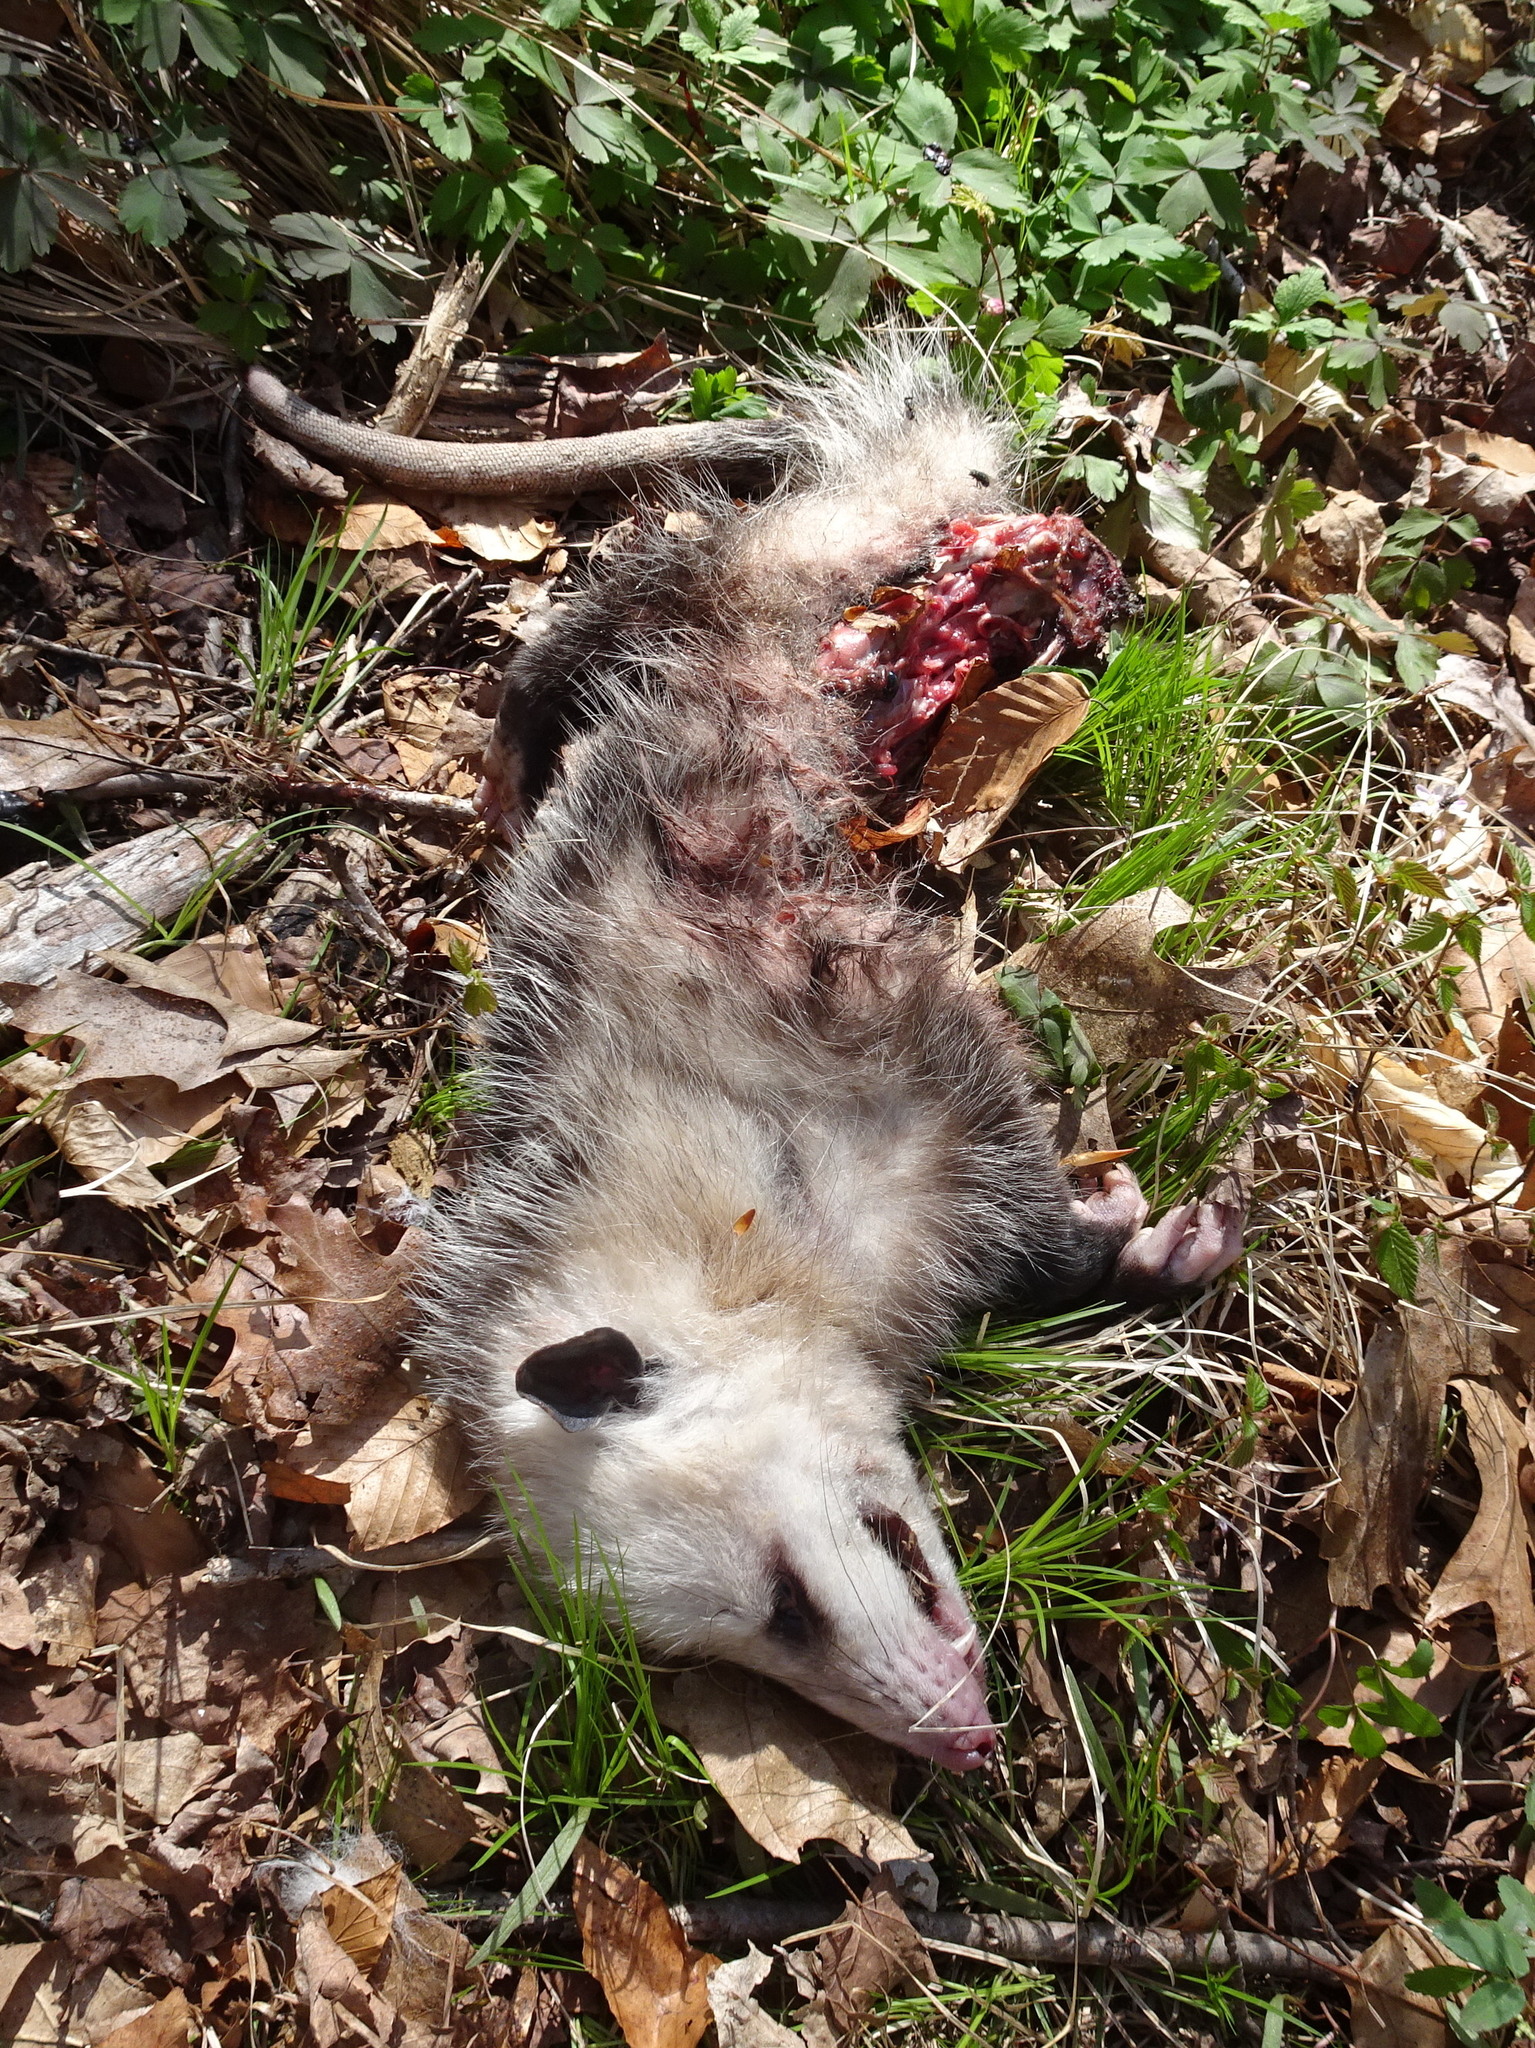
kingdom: Animalia
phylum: Chordata
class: Mammalia
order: Didelphimorphia
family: Didelphidae
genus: Didelphis
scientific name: Didelphis virginiana
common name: Virginia opossum
